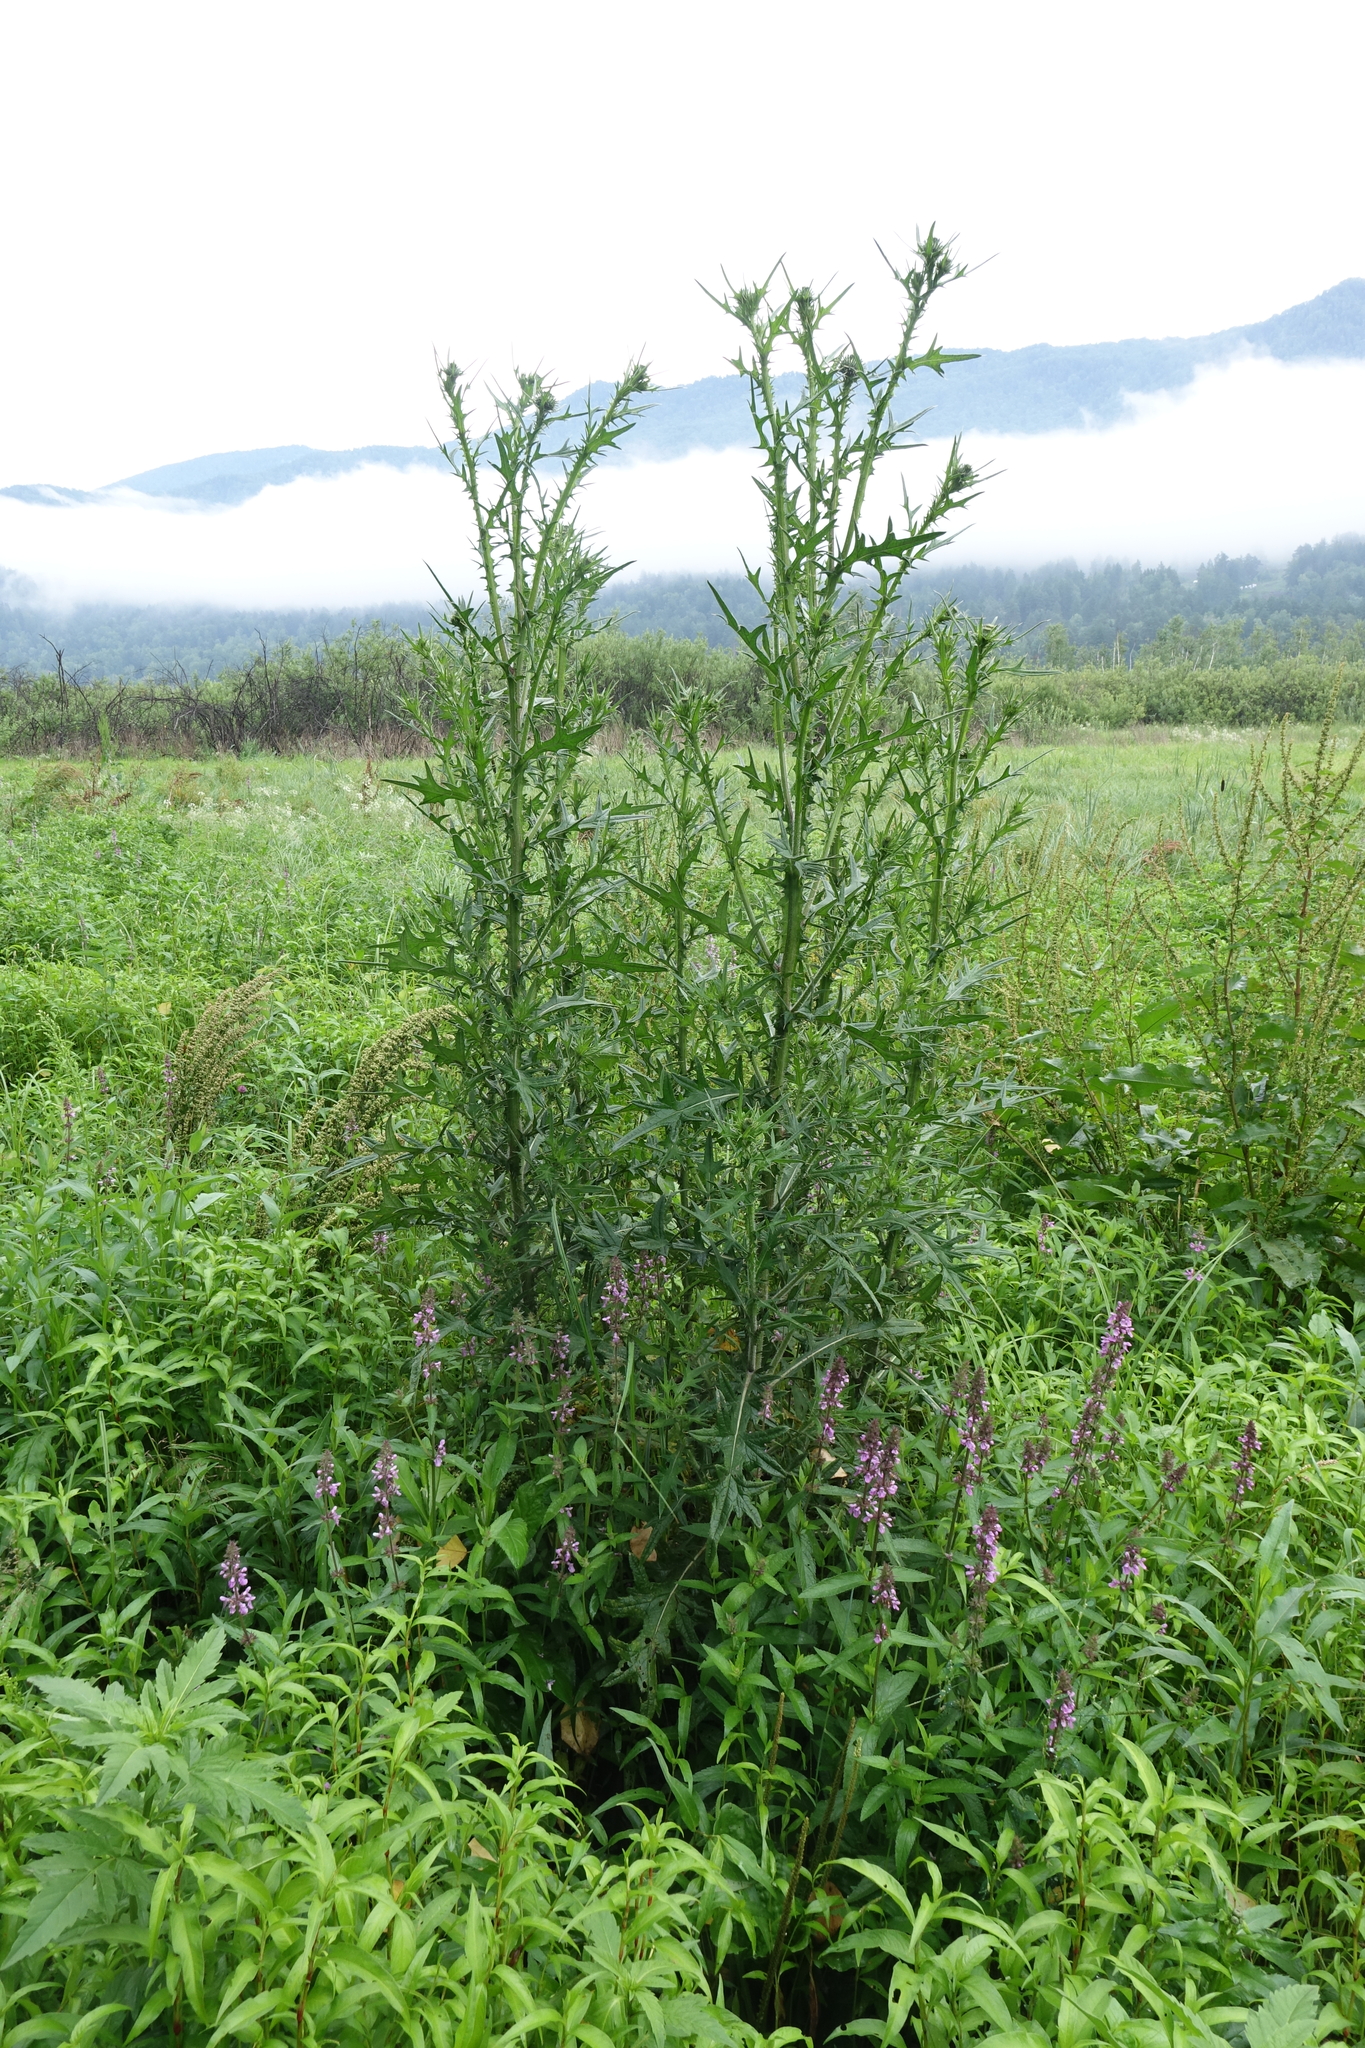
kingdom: Plantae
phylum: Tracheophyta
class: Magnoliopsida
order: Asterales
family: Asteraceae
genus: Cirsium
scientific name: Cirsium vulgare
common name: Bull thistle
